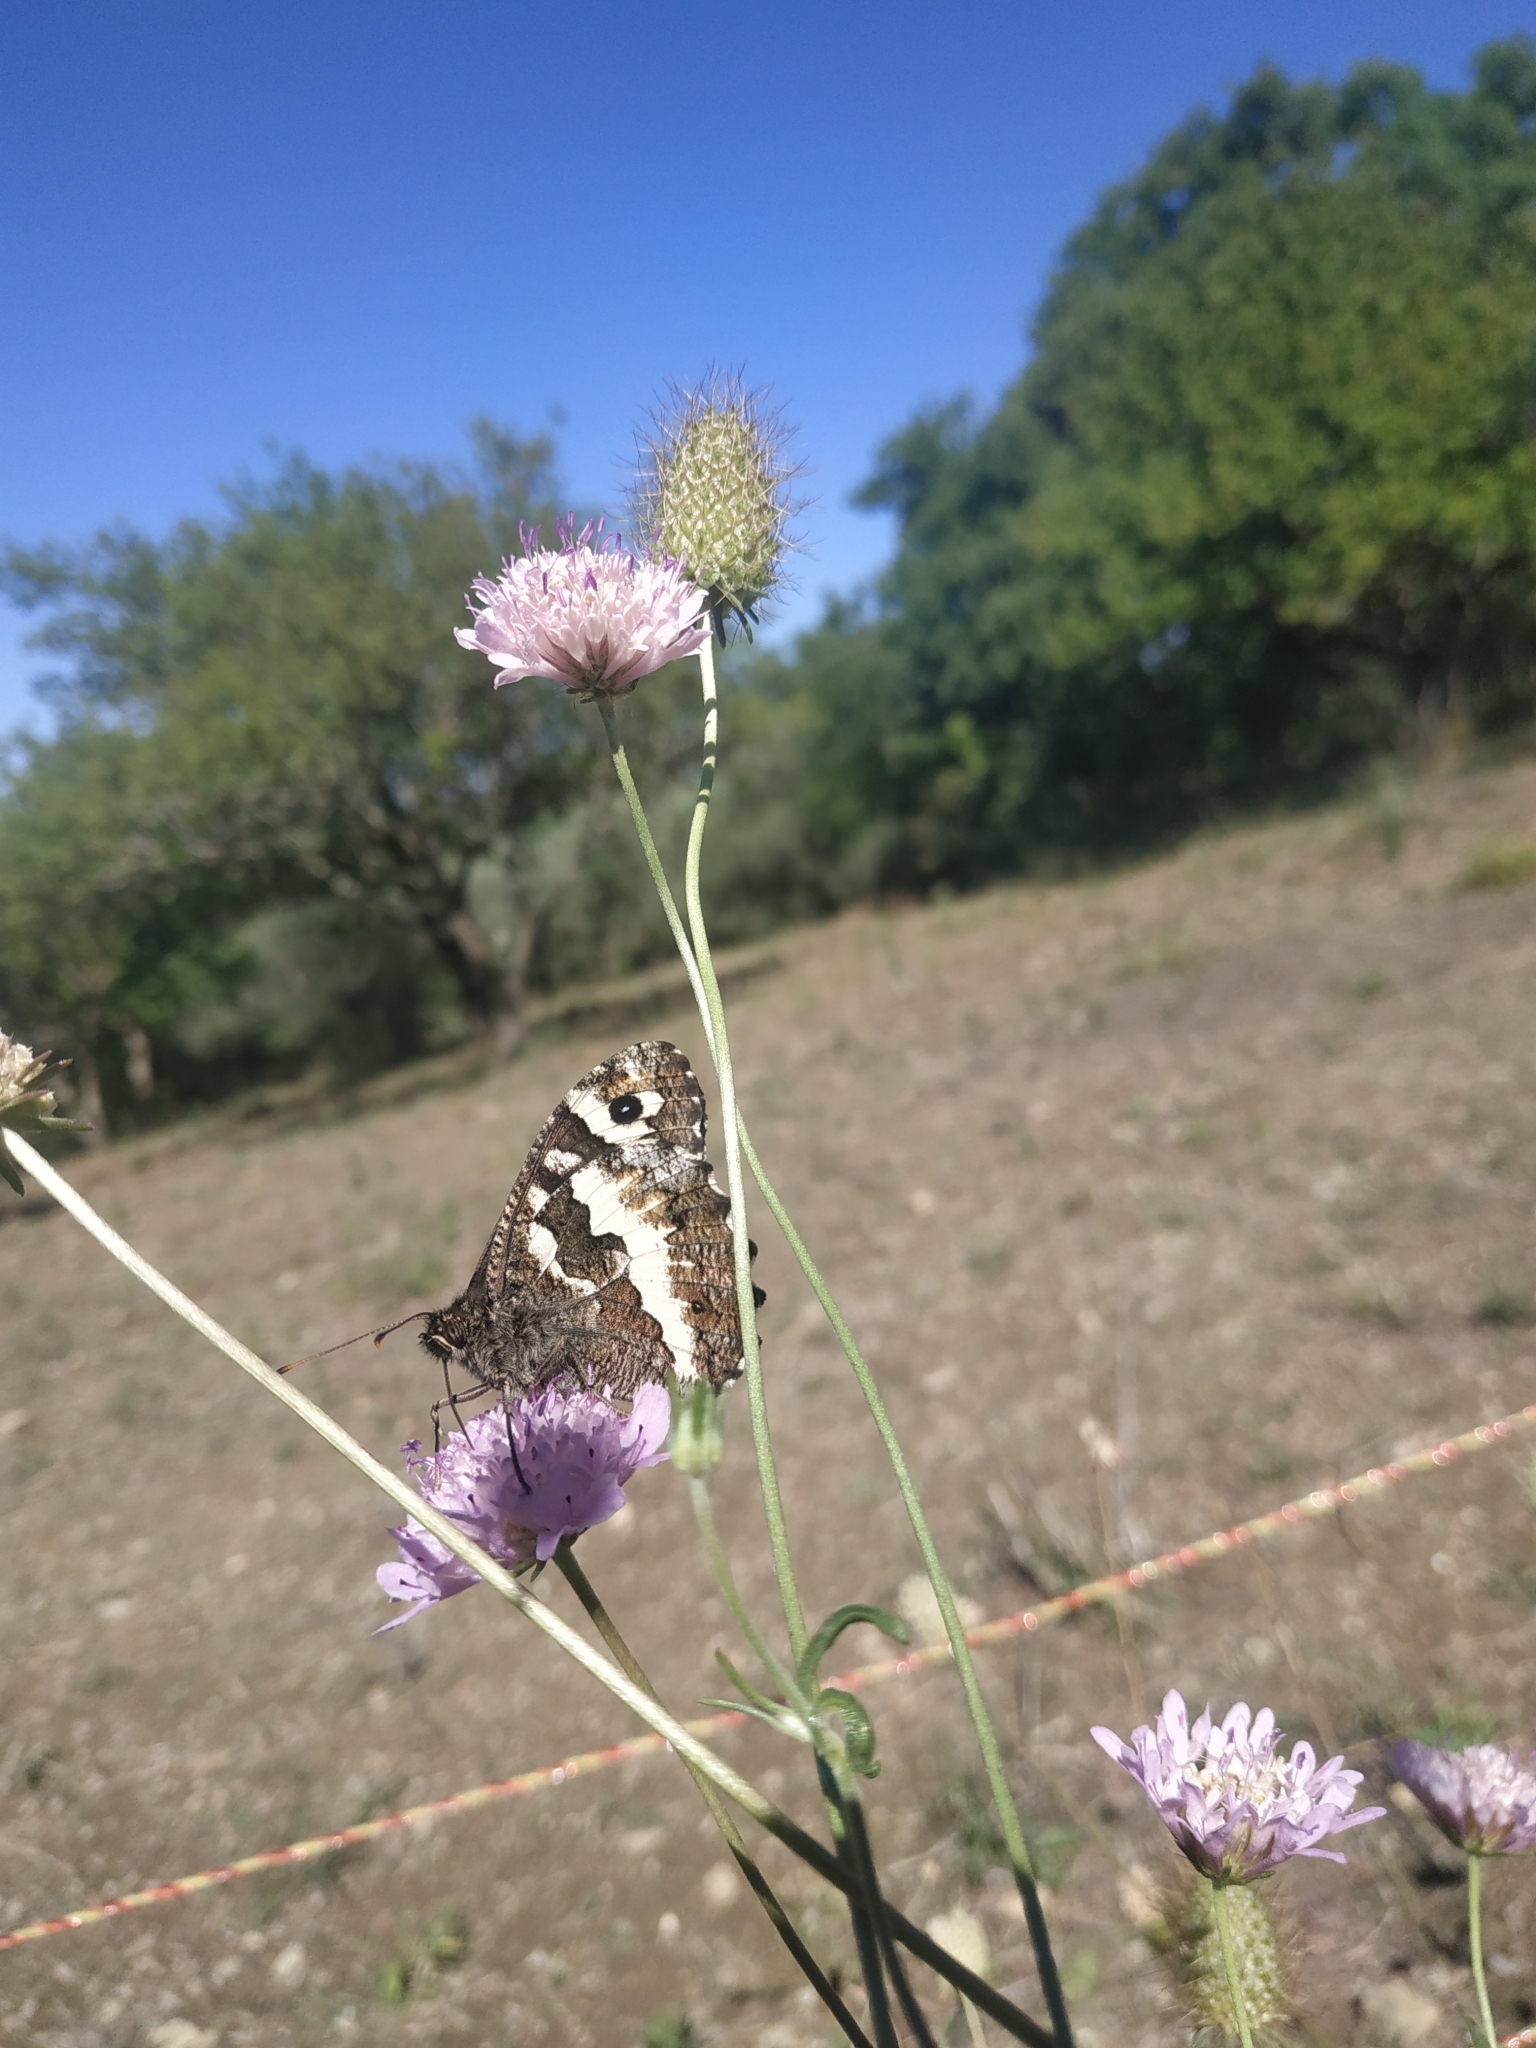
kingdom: Animalia
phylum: Arthropoda
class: Insecta
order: Lepidoptera
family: Lycaenidae
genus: Loweia
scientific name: Loweia tityrus
